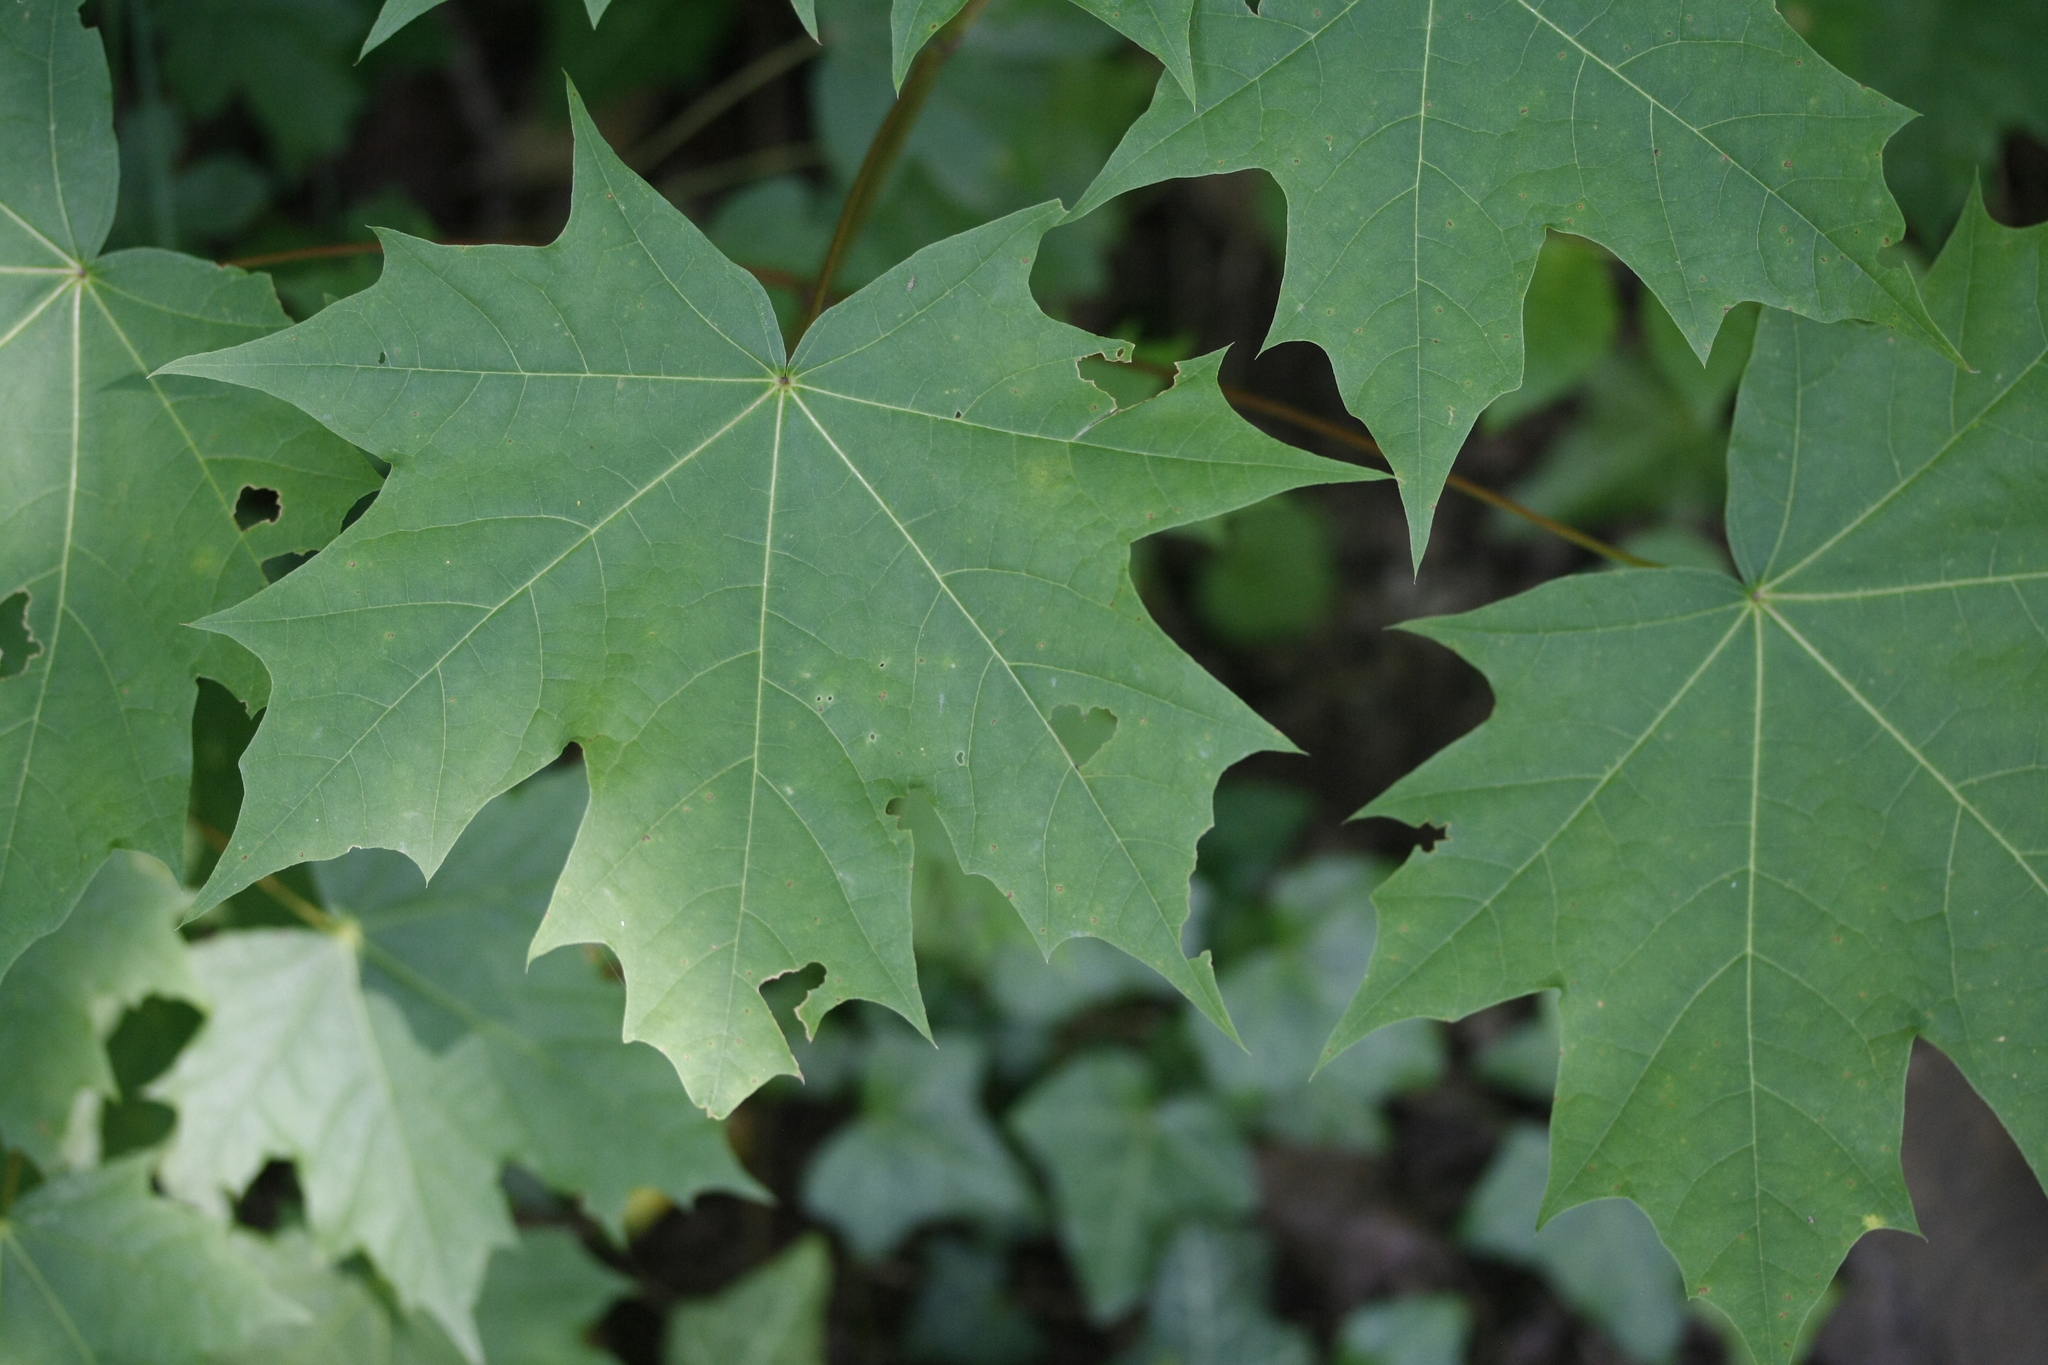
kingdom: Plantae
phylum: Tracheophyta
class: Magnoliopsida
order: Sapindales
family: Sapindaceae
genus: Acer
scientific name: Acer platanoides
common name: Norway maple
